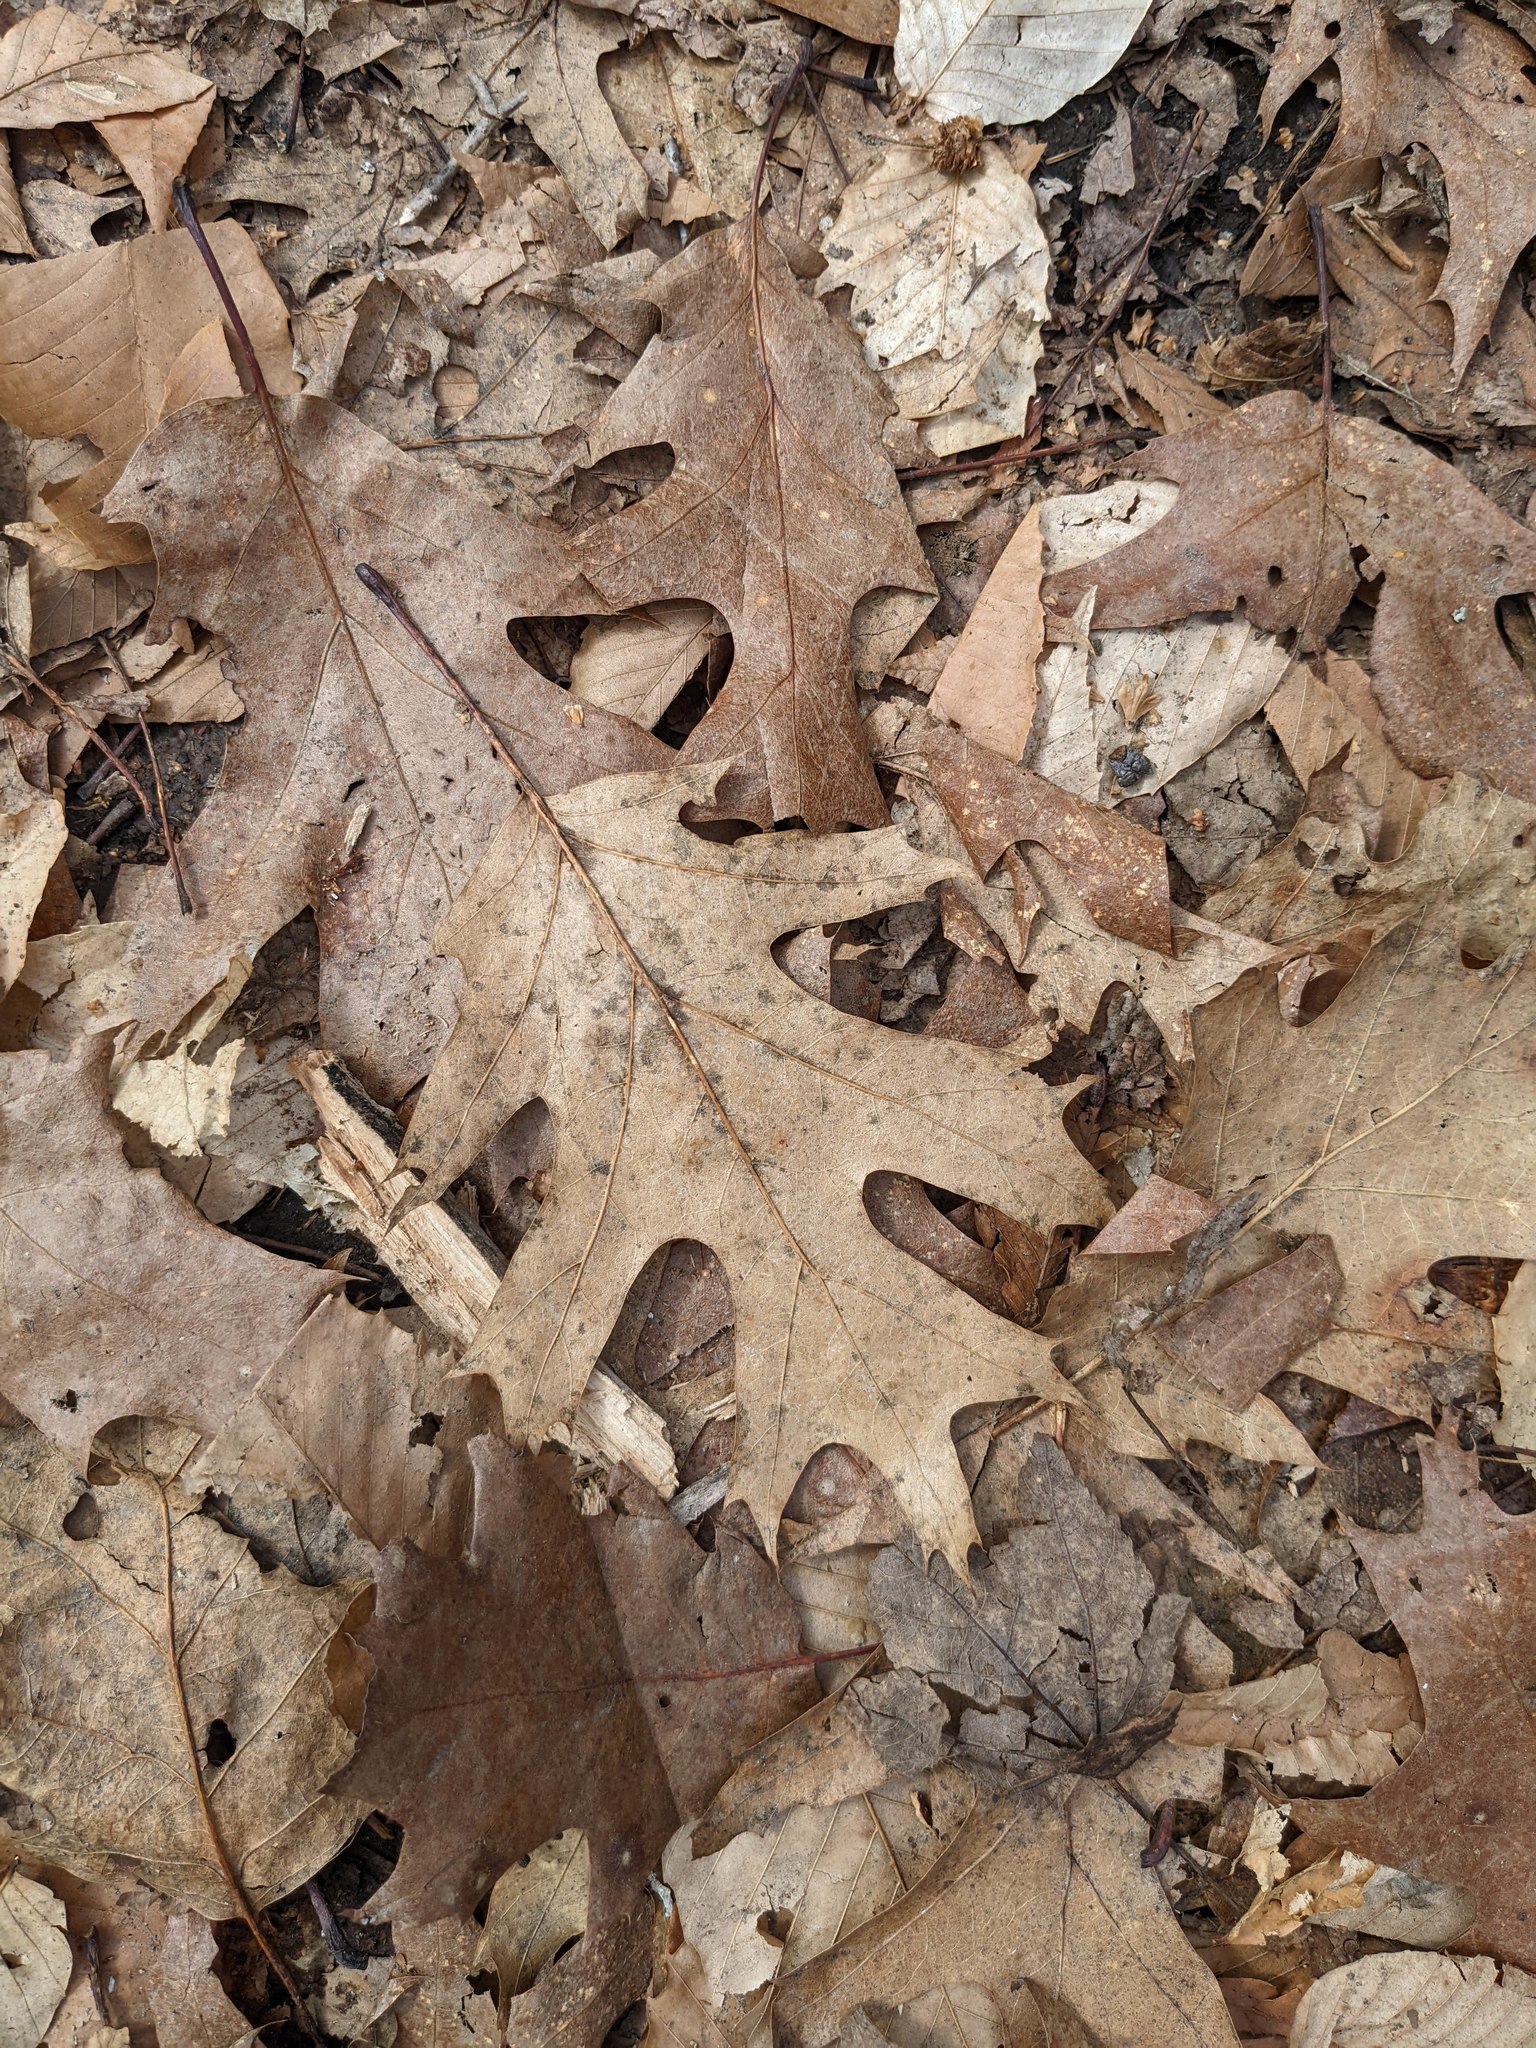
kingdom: Plantae
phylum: Tracheophyta
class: Magnoliopsida
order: Fagales
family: Fagaceae
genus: Quercus
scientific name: Quercus rubra
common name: Red oak
